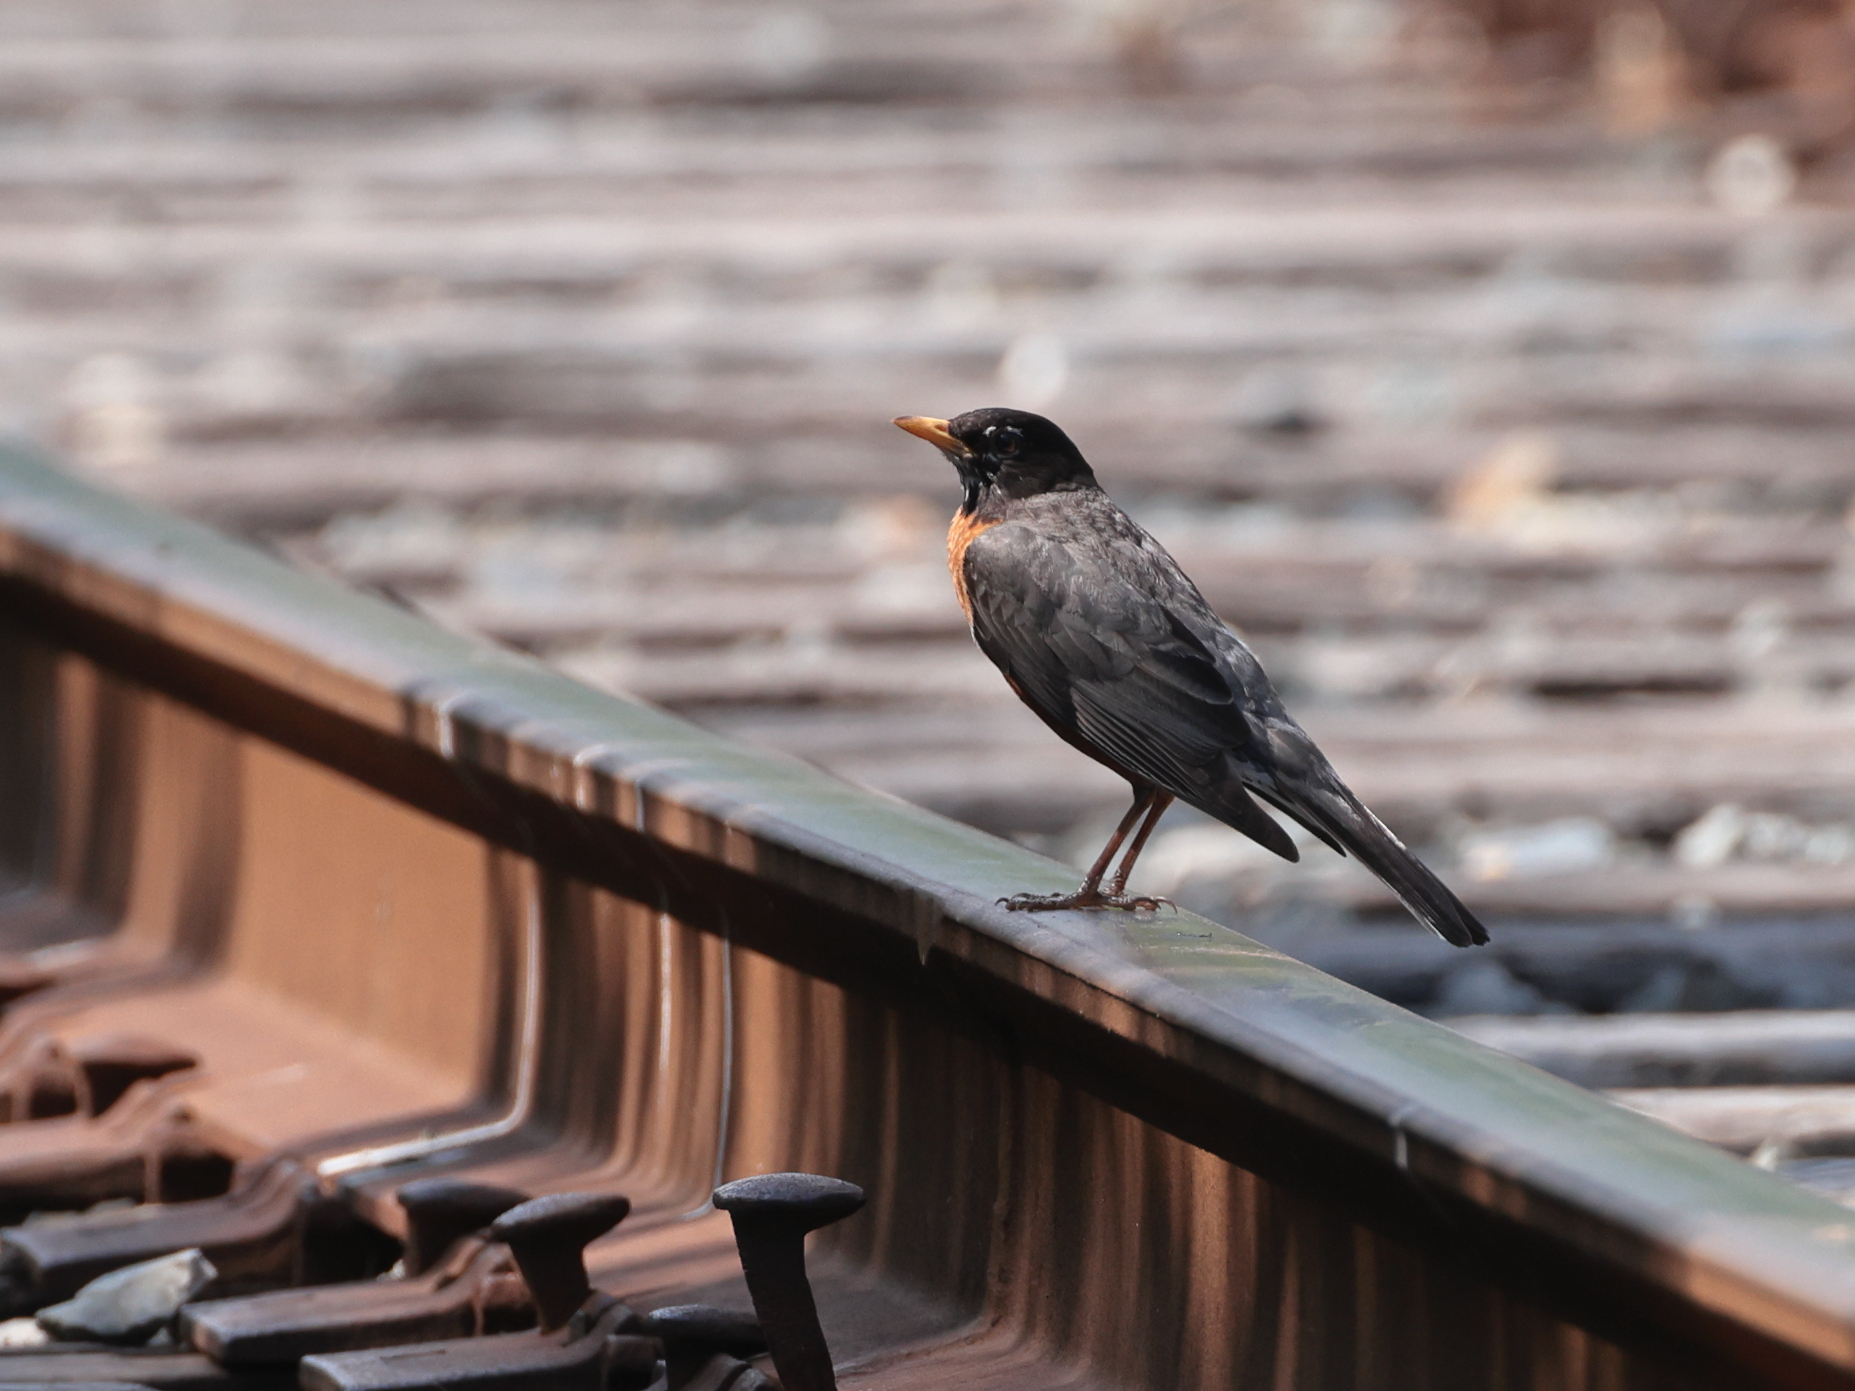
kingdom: Animalia
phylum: Chordata
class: Aves
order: Passeriformes
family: Turdidae
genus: Turdus
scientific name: Turdus migratorius
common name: American robin
